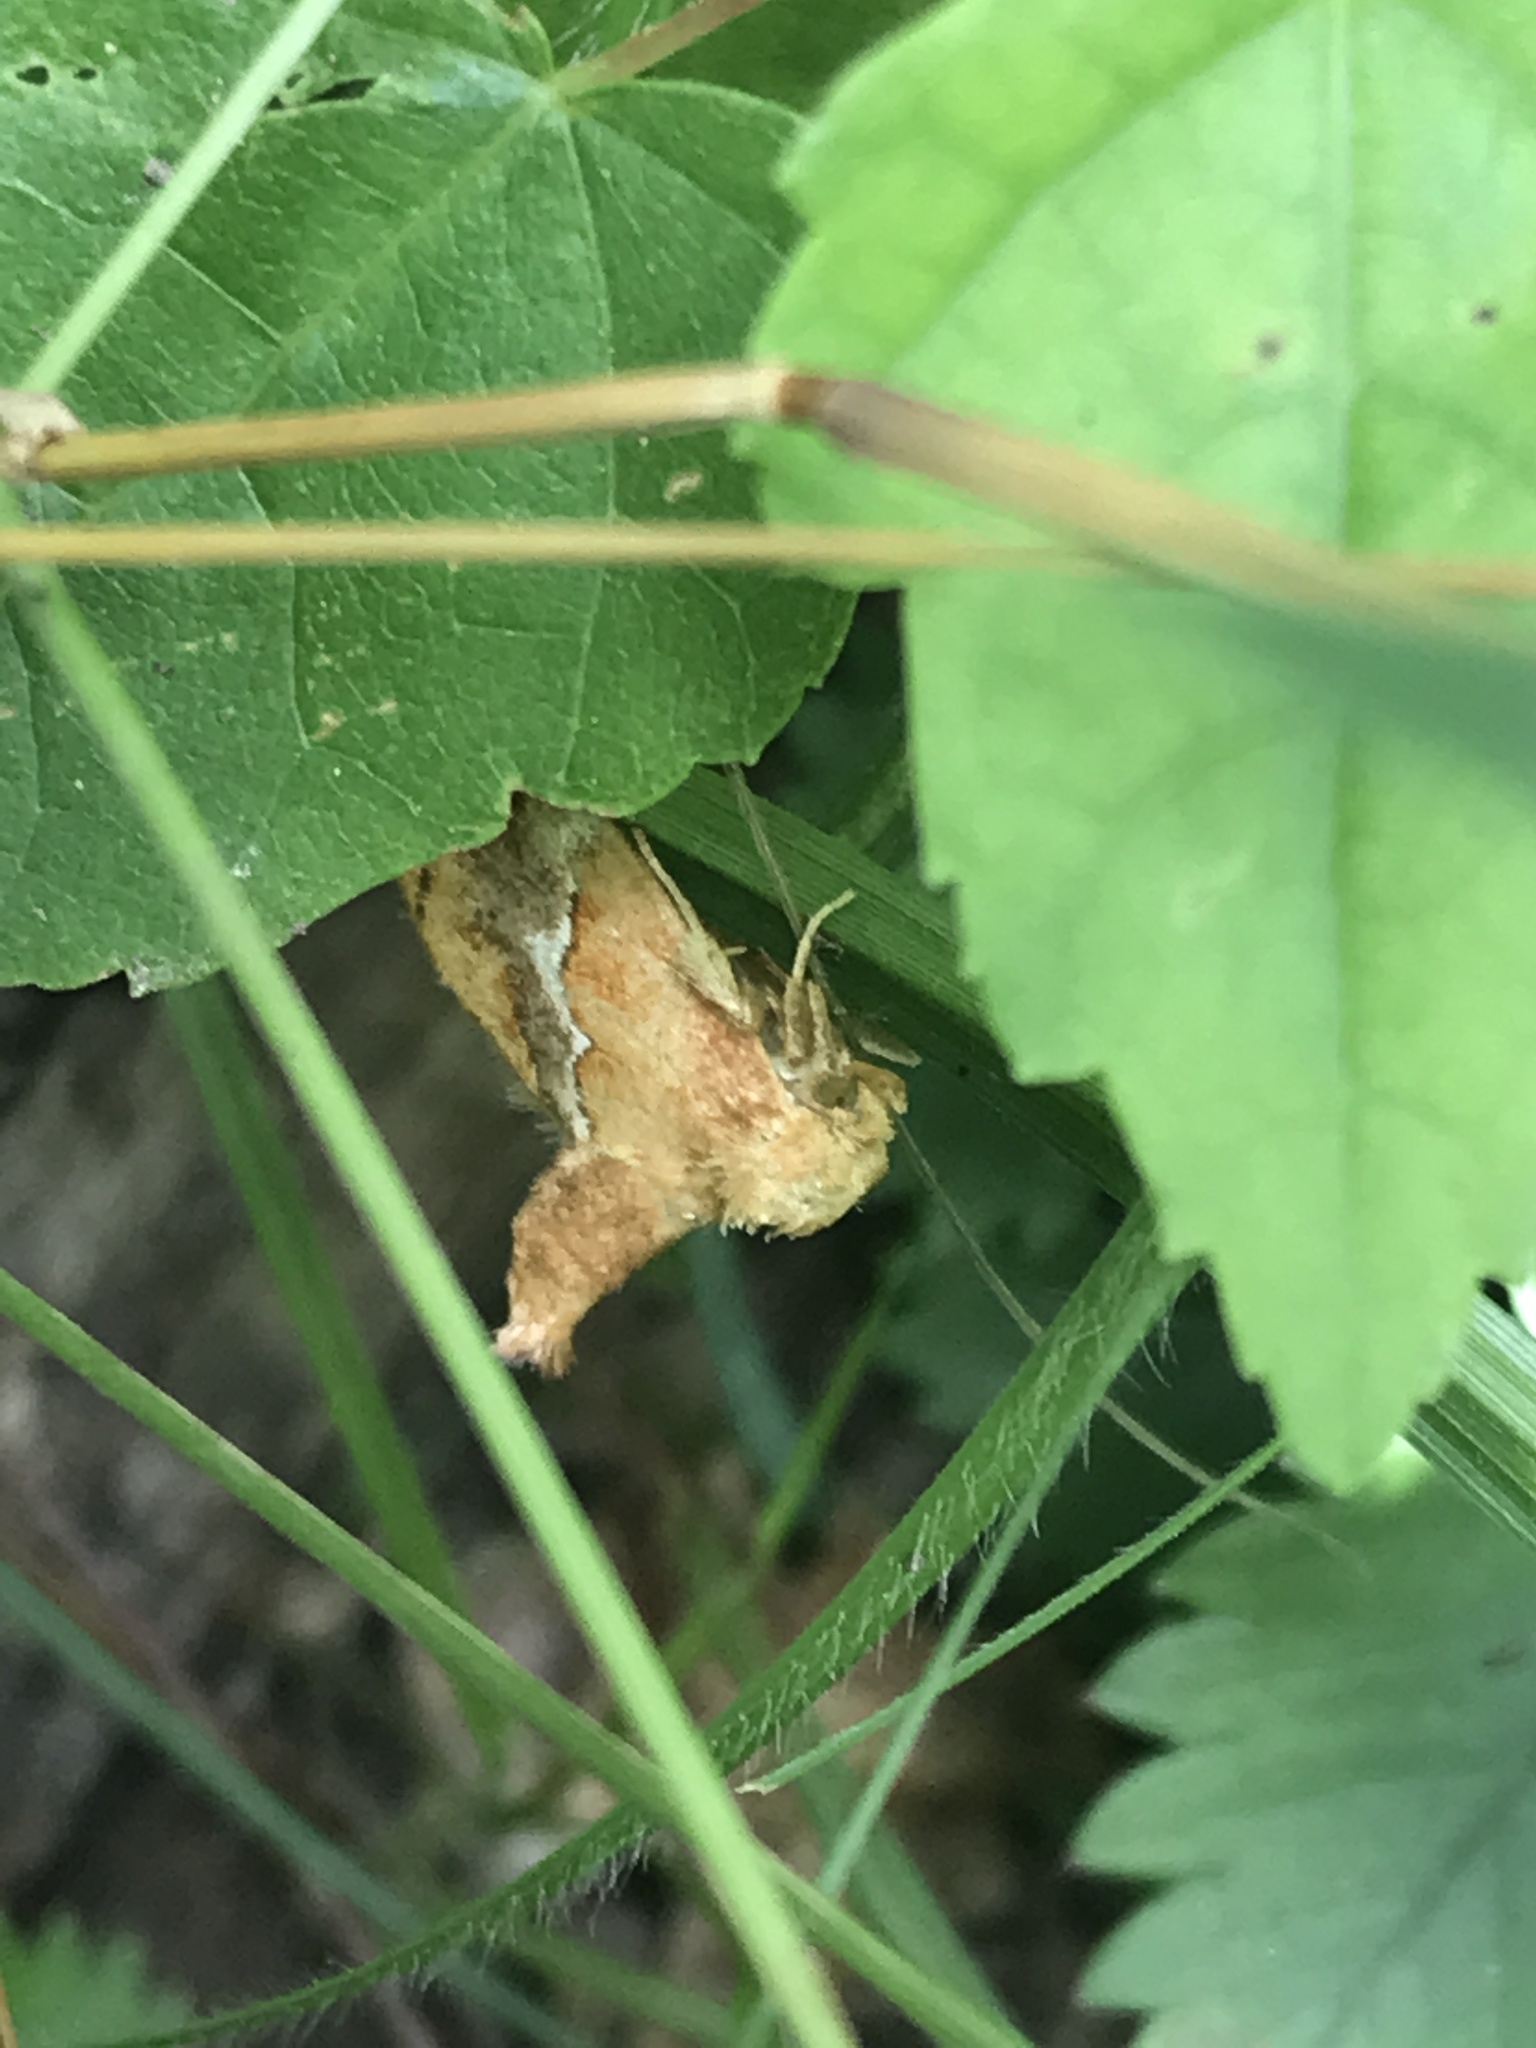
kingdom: Animalia
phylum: Arthropoda
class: Insecta
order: Lepidoptera
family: Limacodidae
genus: Lithacodes
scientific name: Lithacodes fasciola
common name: Yellow-shouldered slug moth
